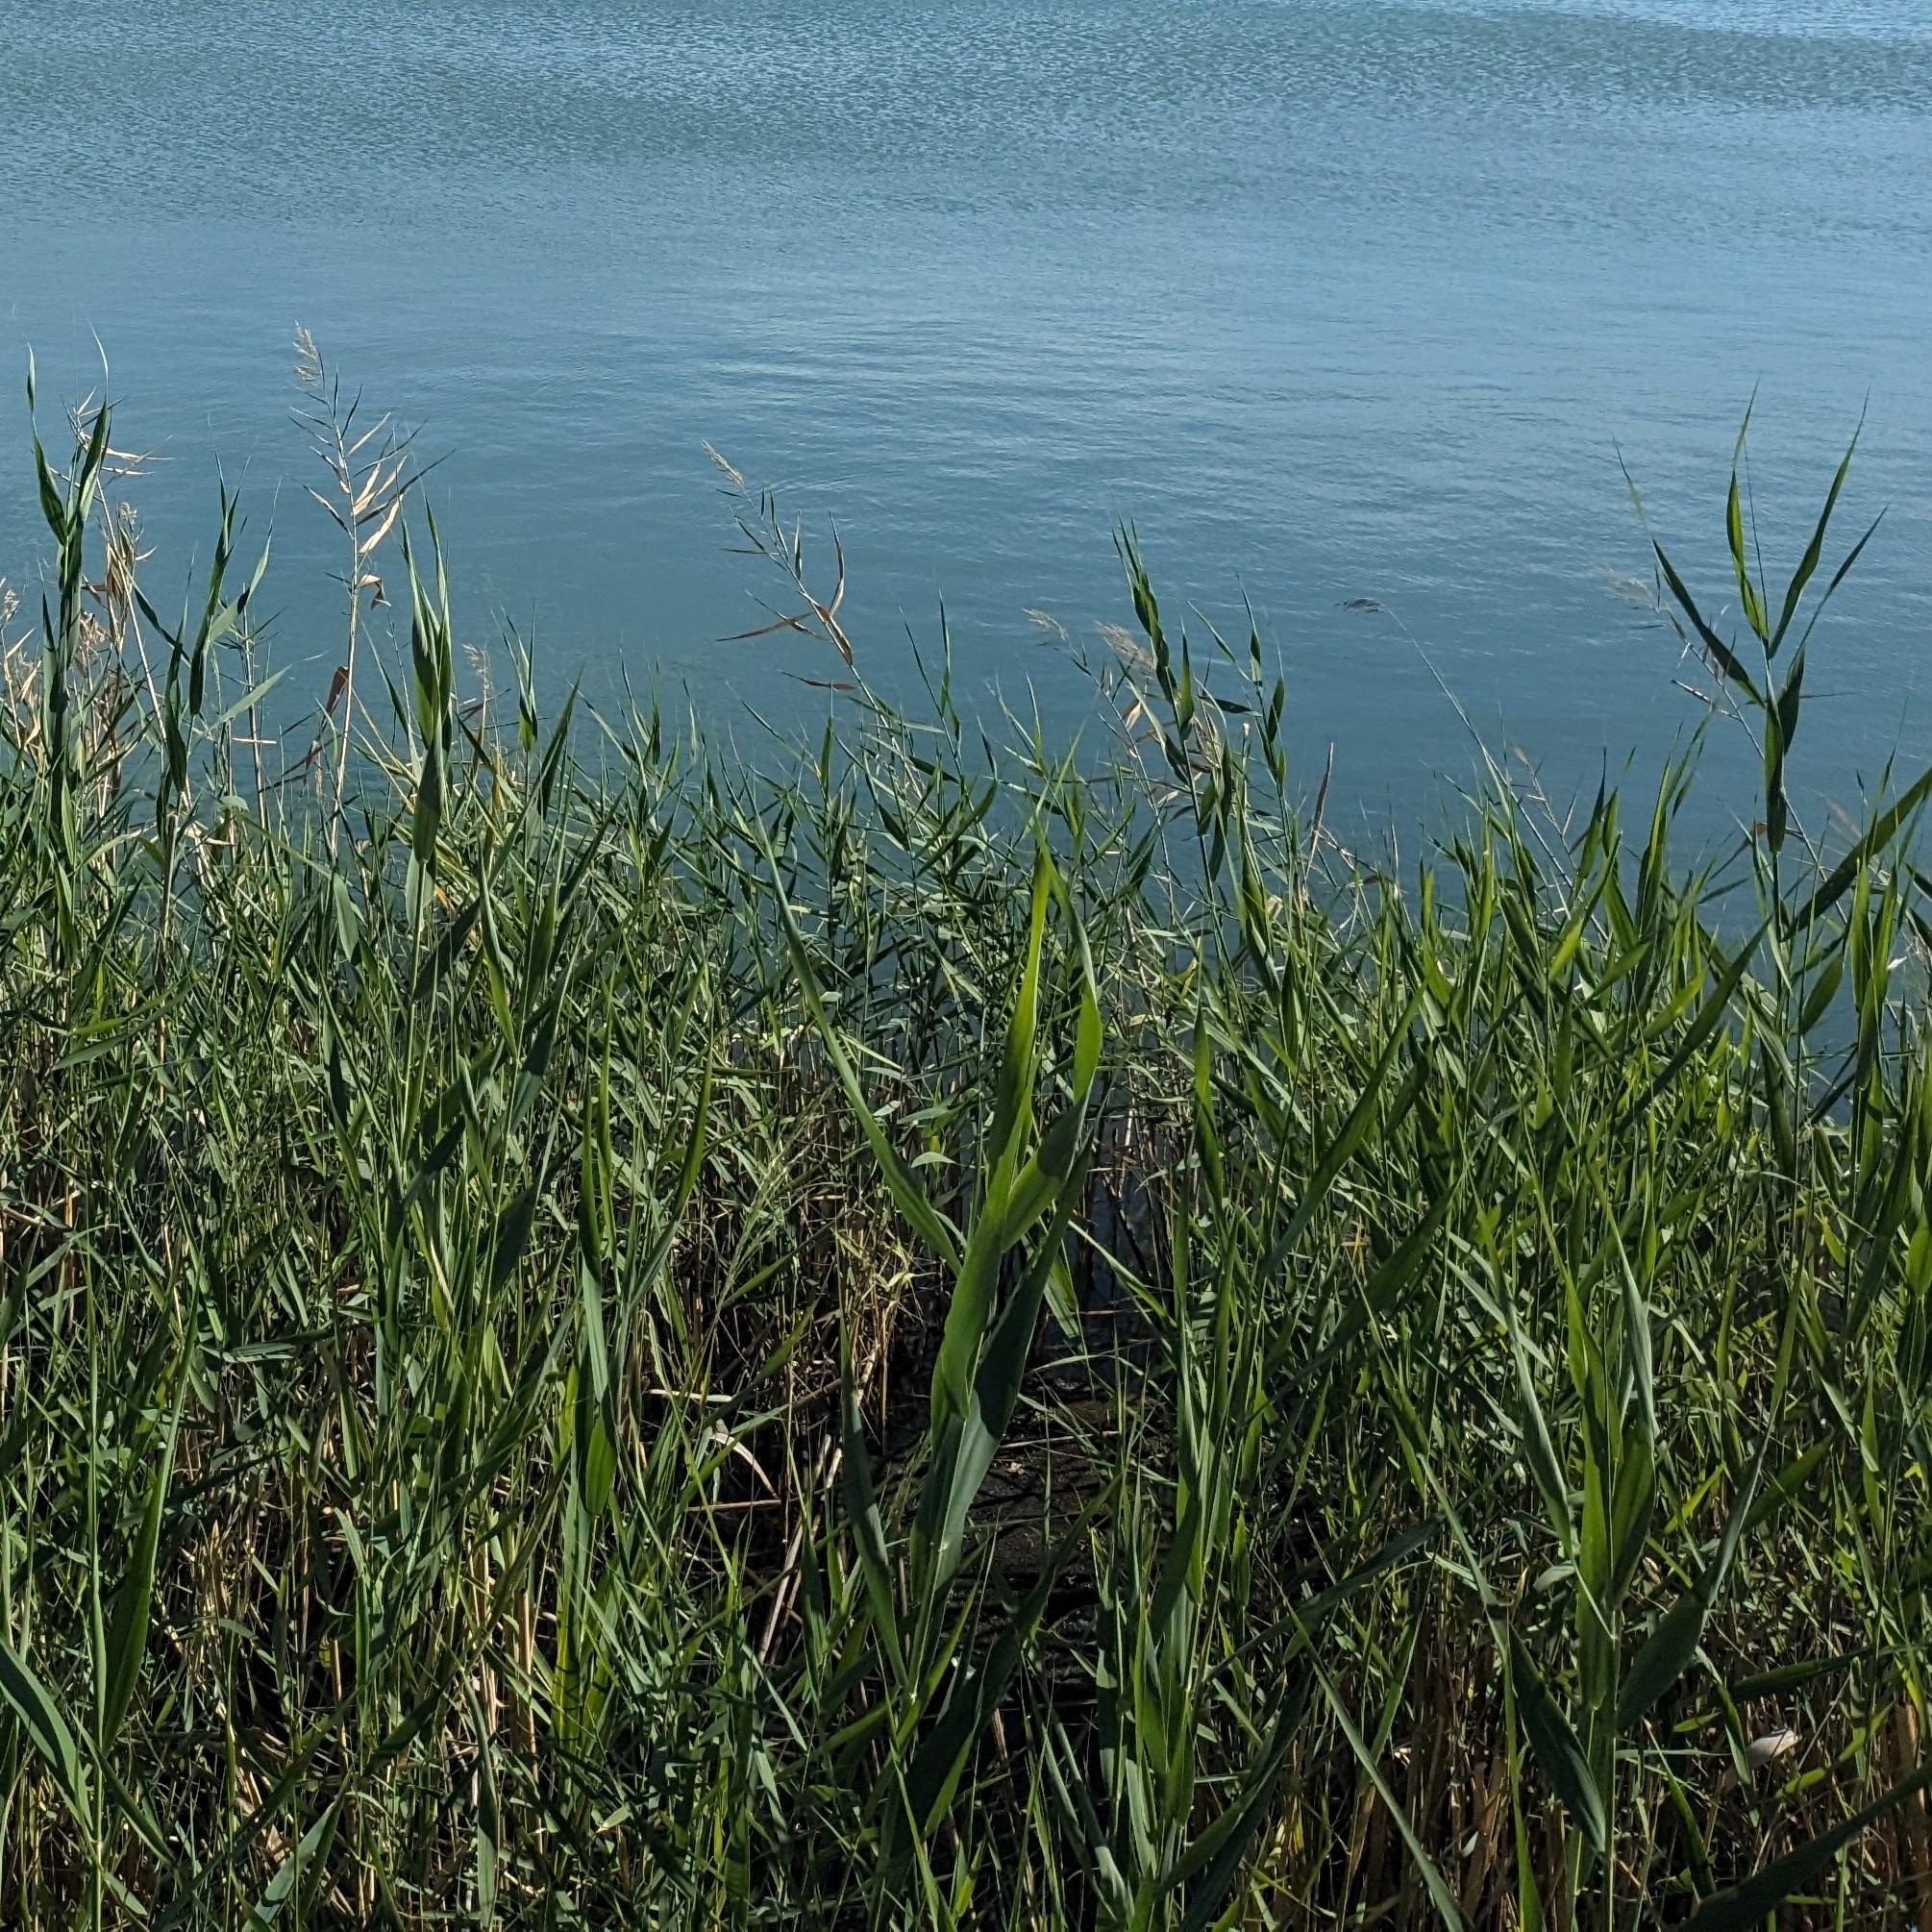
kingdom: Plantae
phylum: Tracheophyta
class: Liliopsida
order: Poales
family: Poaceae
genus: Phragmites
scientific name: Phragmites australis
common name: Common reed
